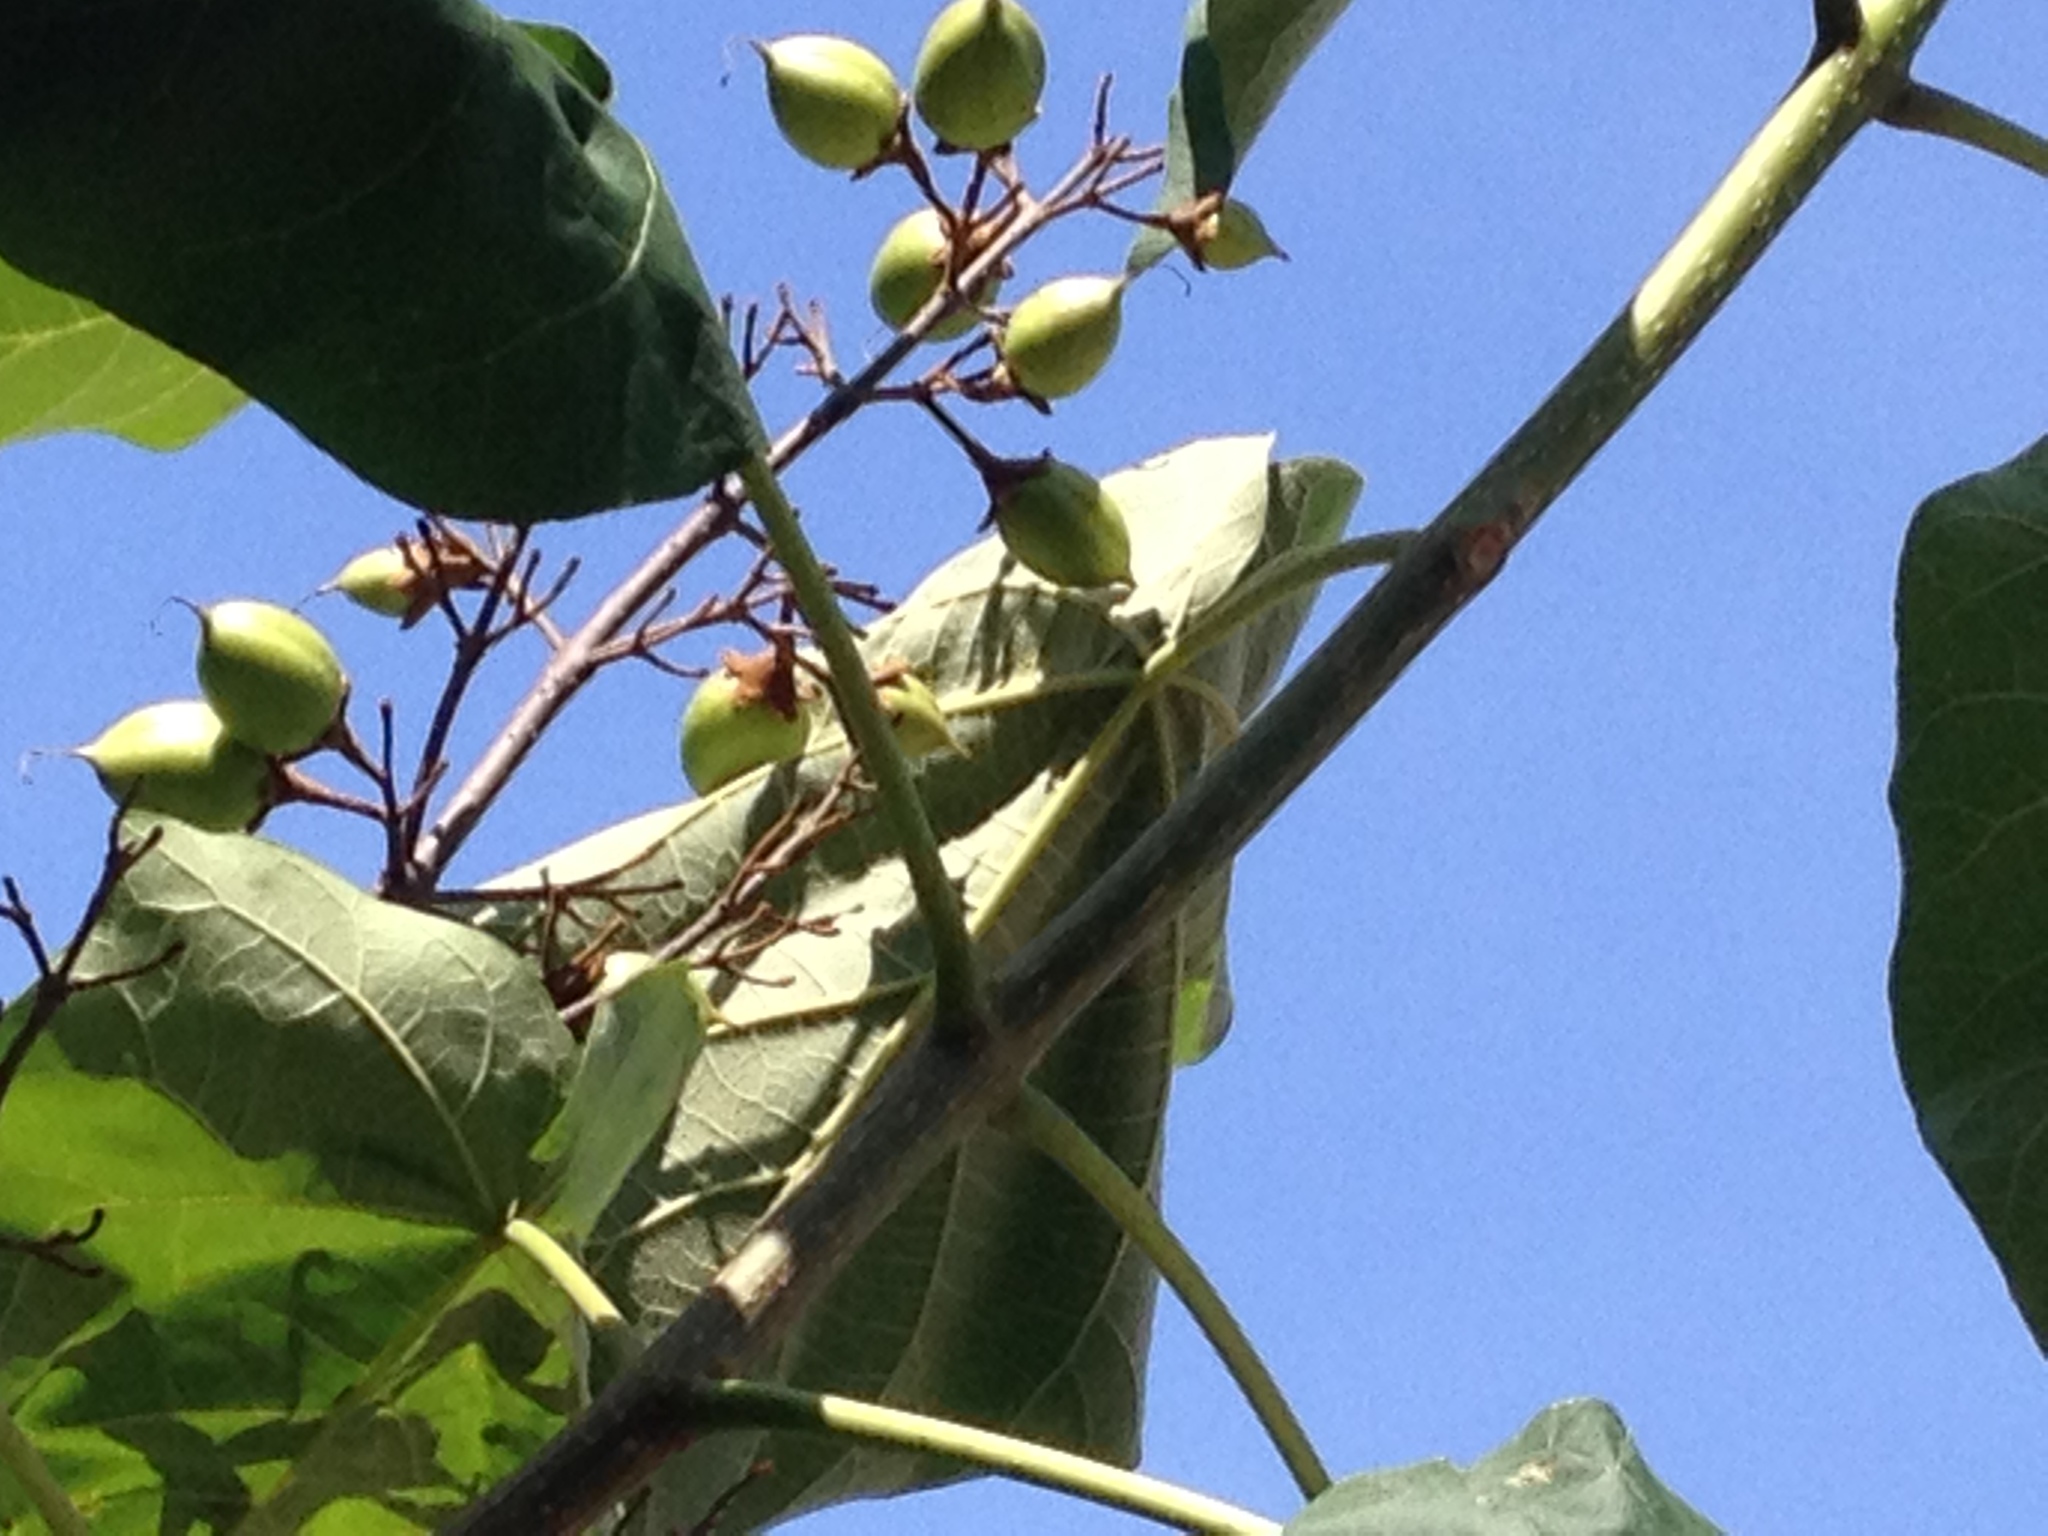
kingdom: Plantae
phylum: Tracheophyta
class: Magnoliopsida
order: Lamiales
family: Paulowniaceae
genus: Paulownia
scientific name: Paulownia tomentosa
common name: Foxglove-tree
